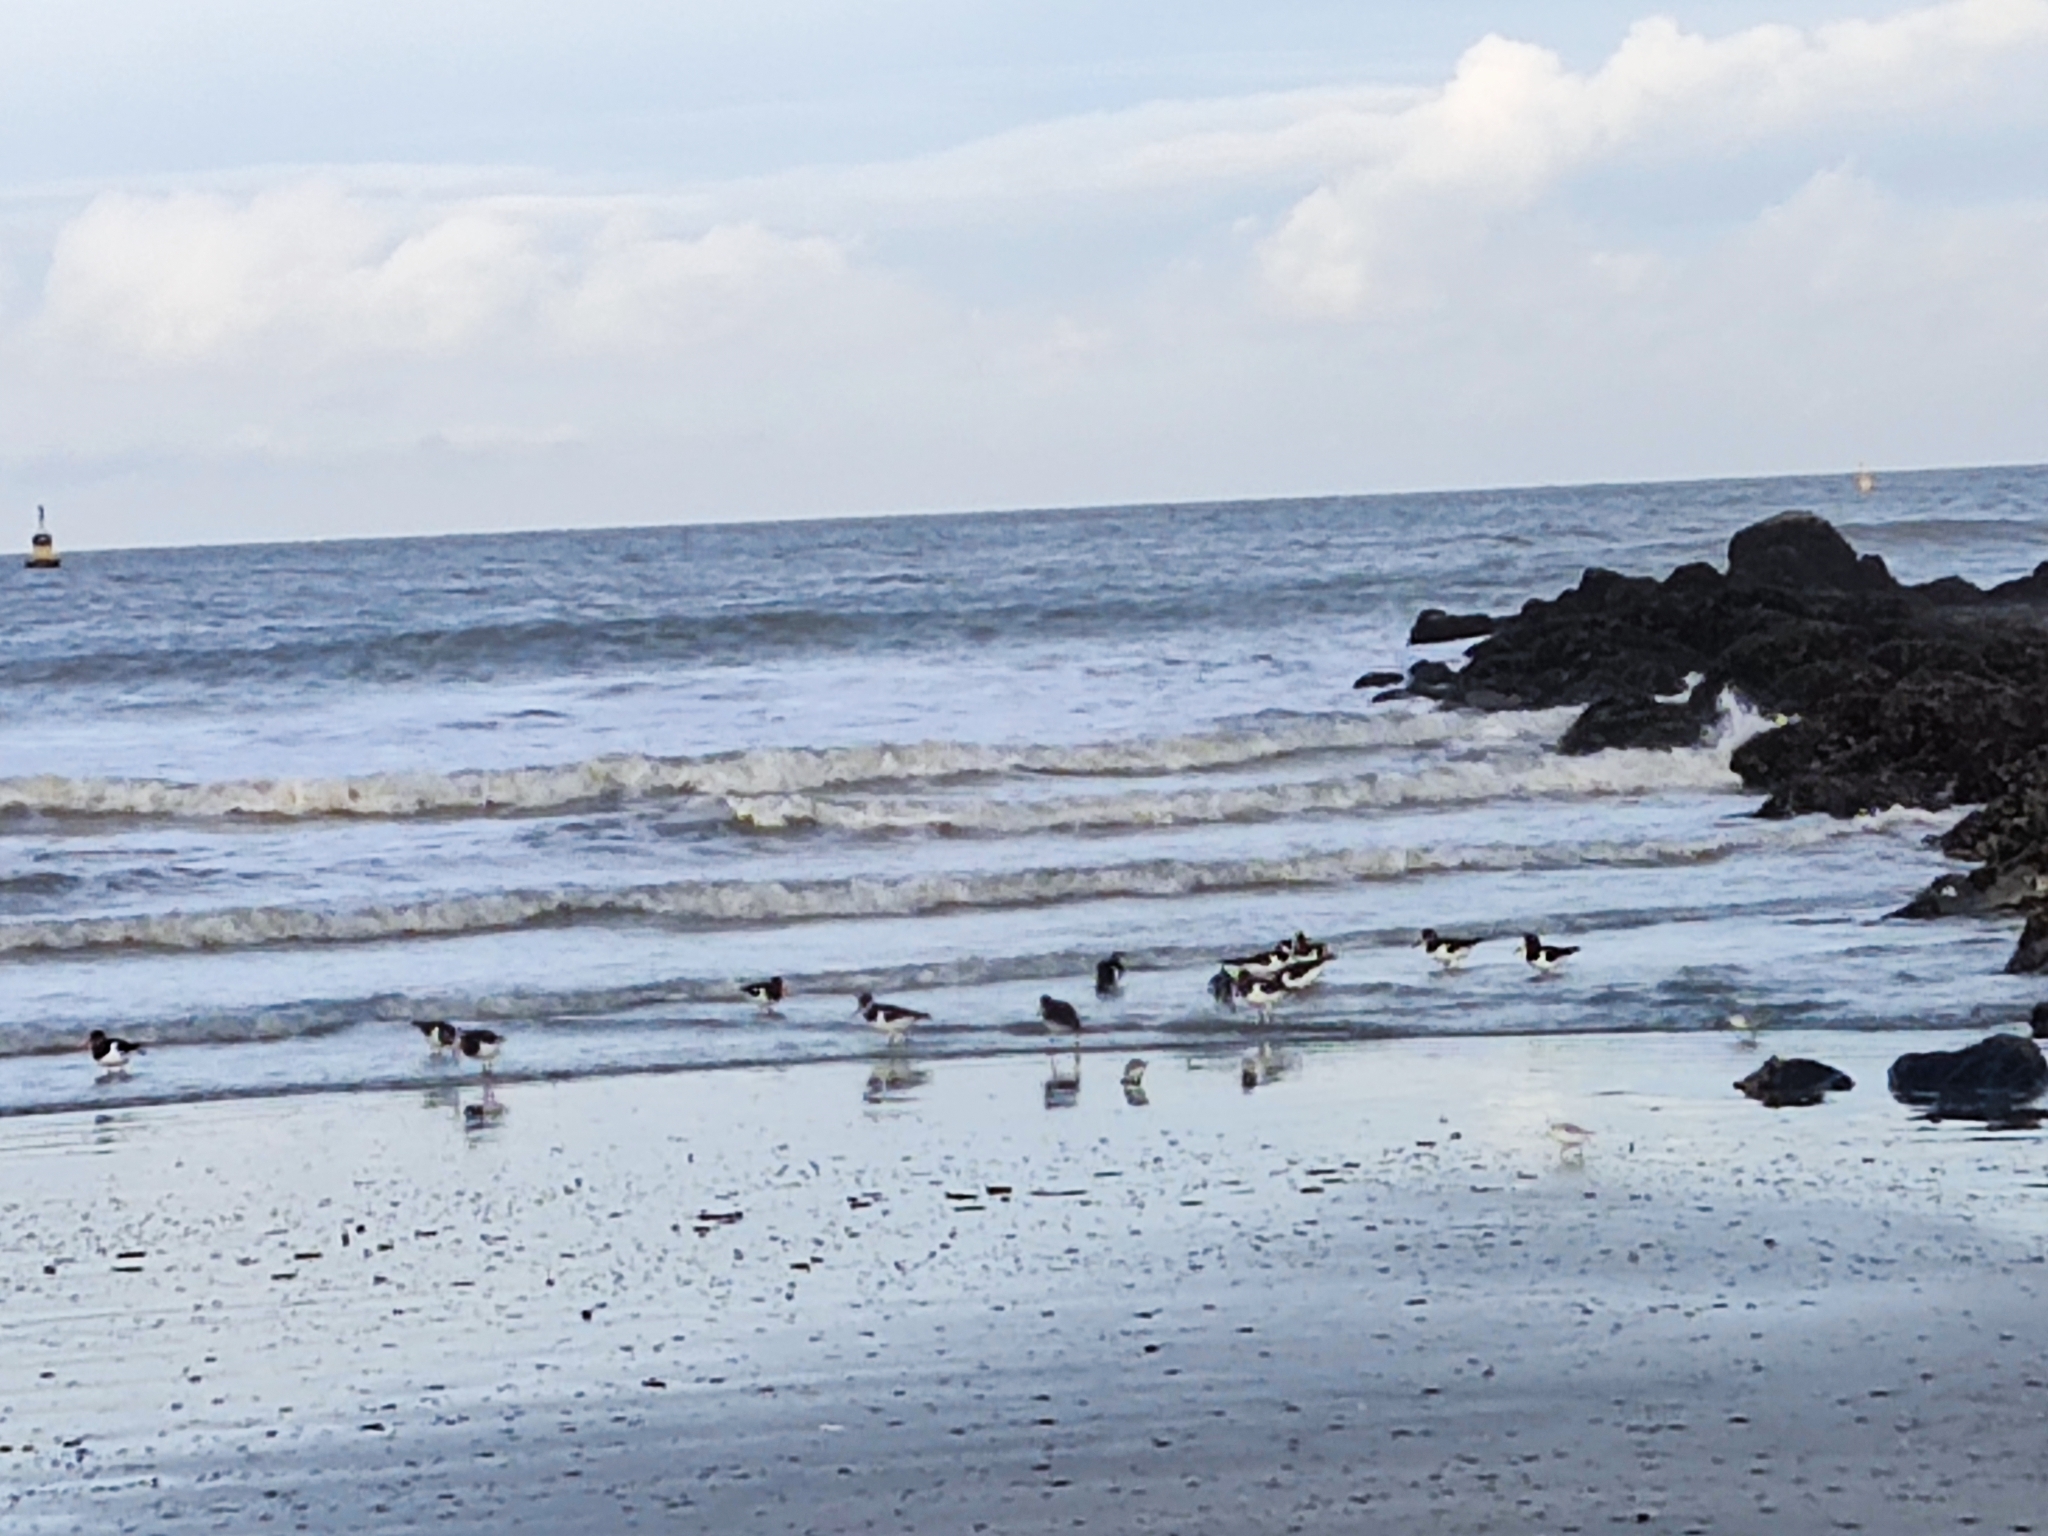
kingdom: Animalia
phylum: Chordata
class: Aves
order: Charadriiformes
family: Haematopodidae
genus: Haematopus
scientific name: Haematopus ostralegus
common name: Eurasian oystercatcher
